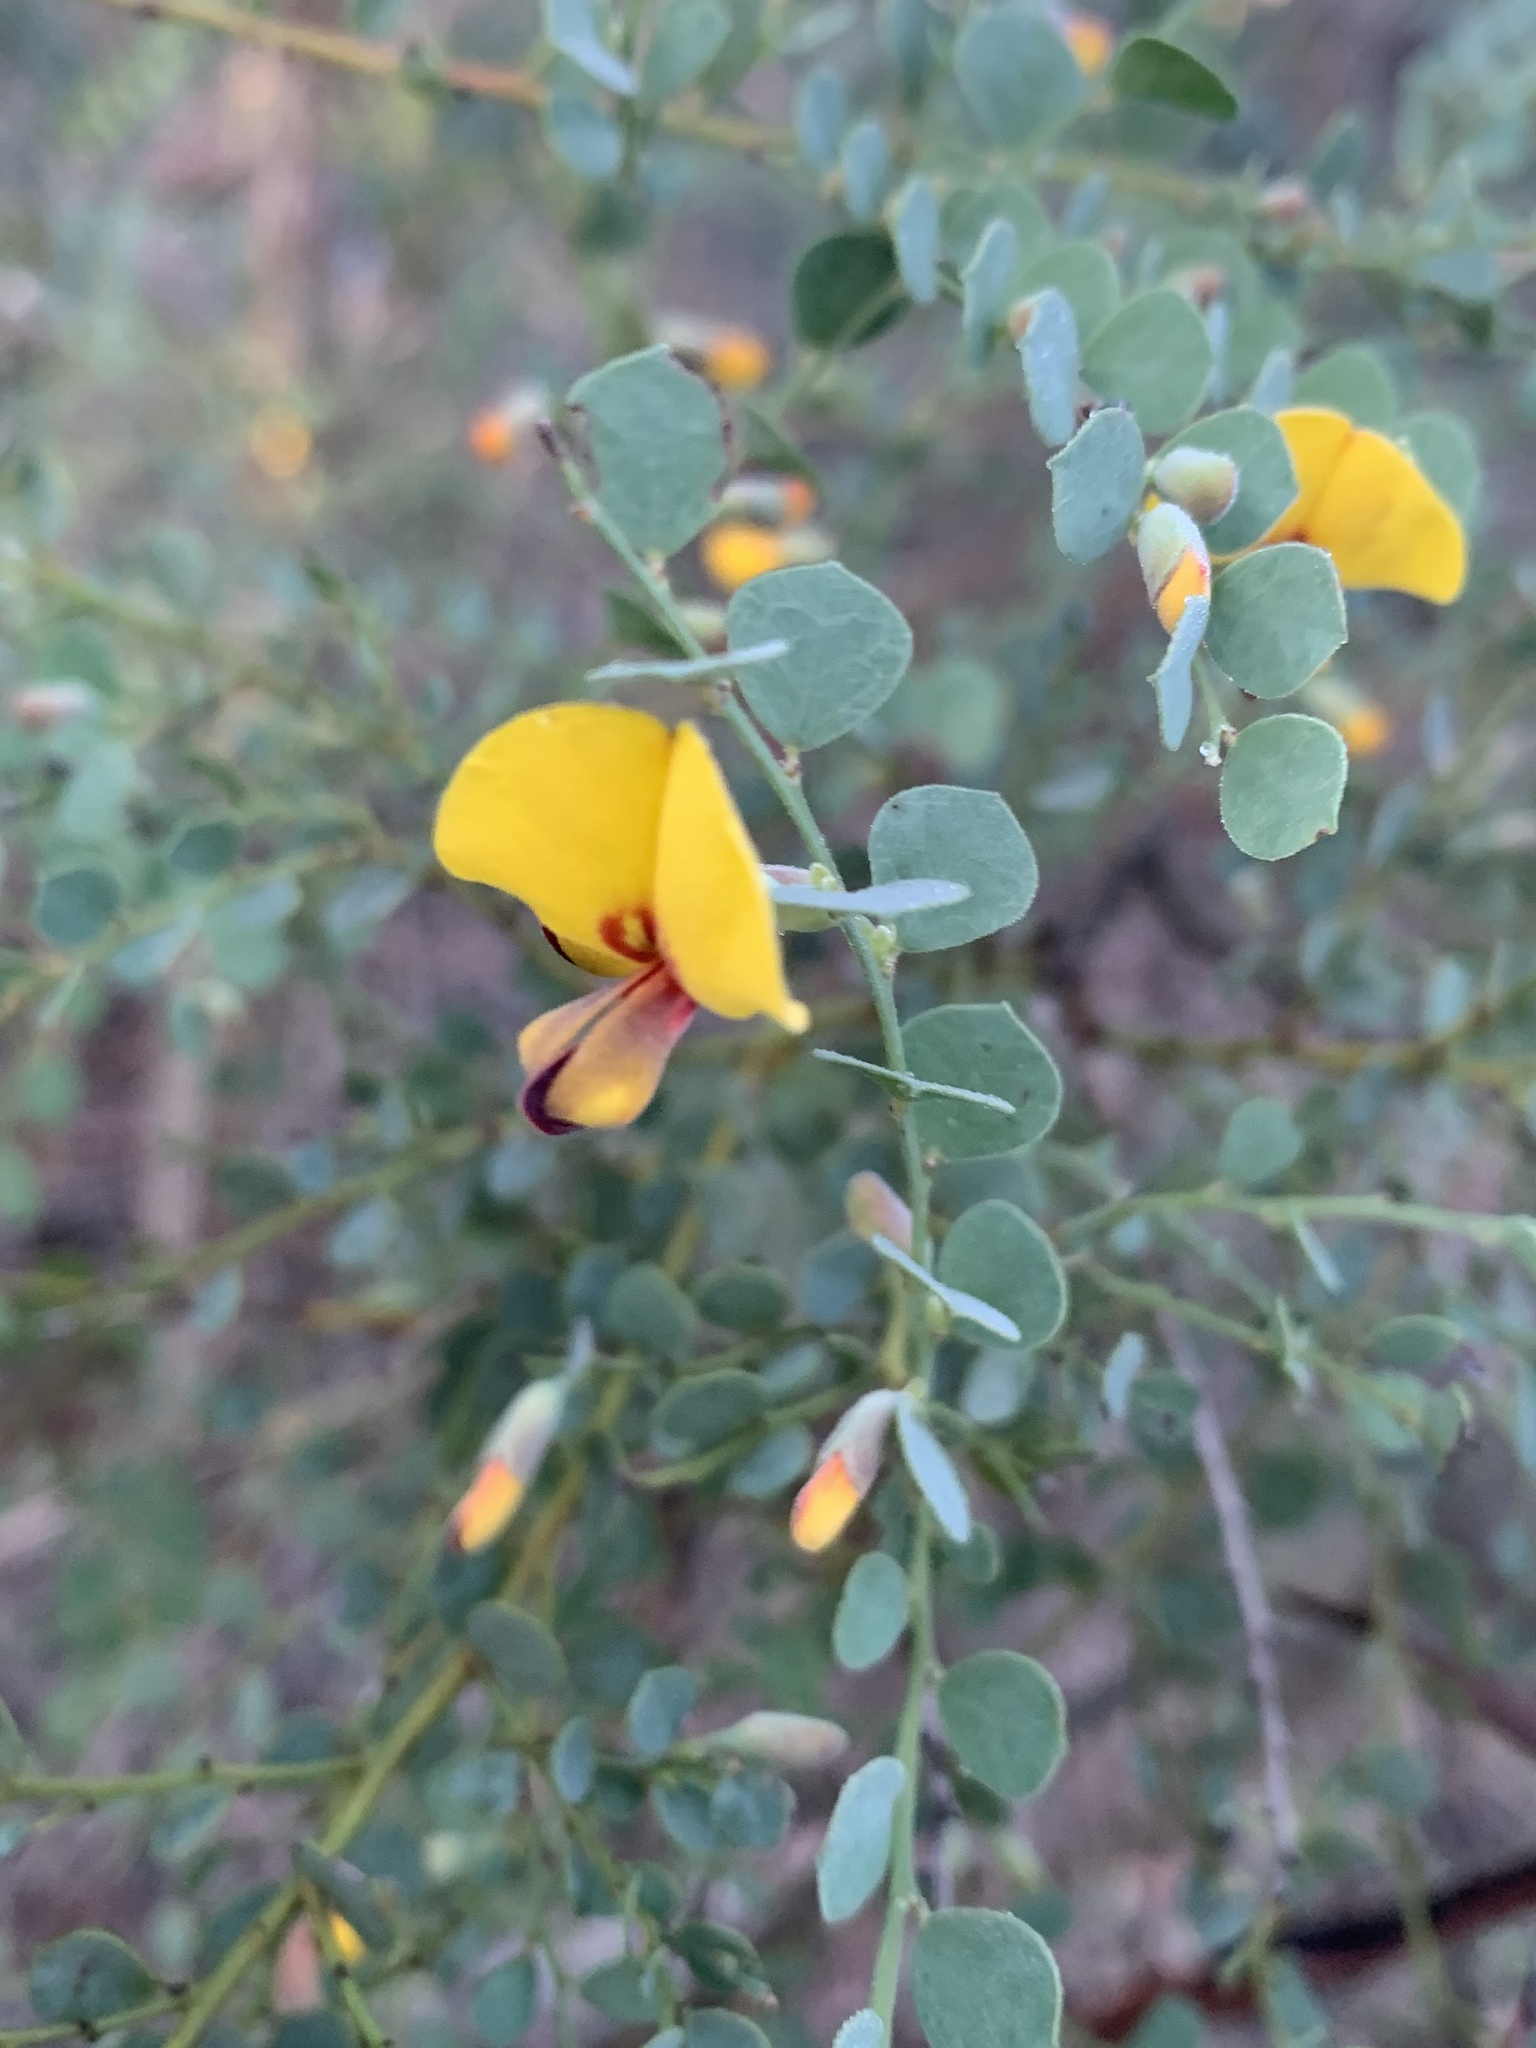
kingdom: Plantae
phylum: Tracheophyta
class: Magnoliopsida
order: Fabales
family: Fabaceae
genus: Bossiaea
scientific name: Bossiaea rhombifolia
